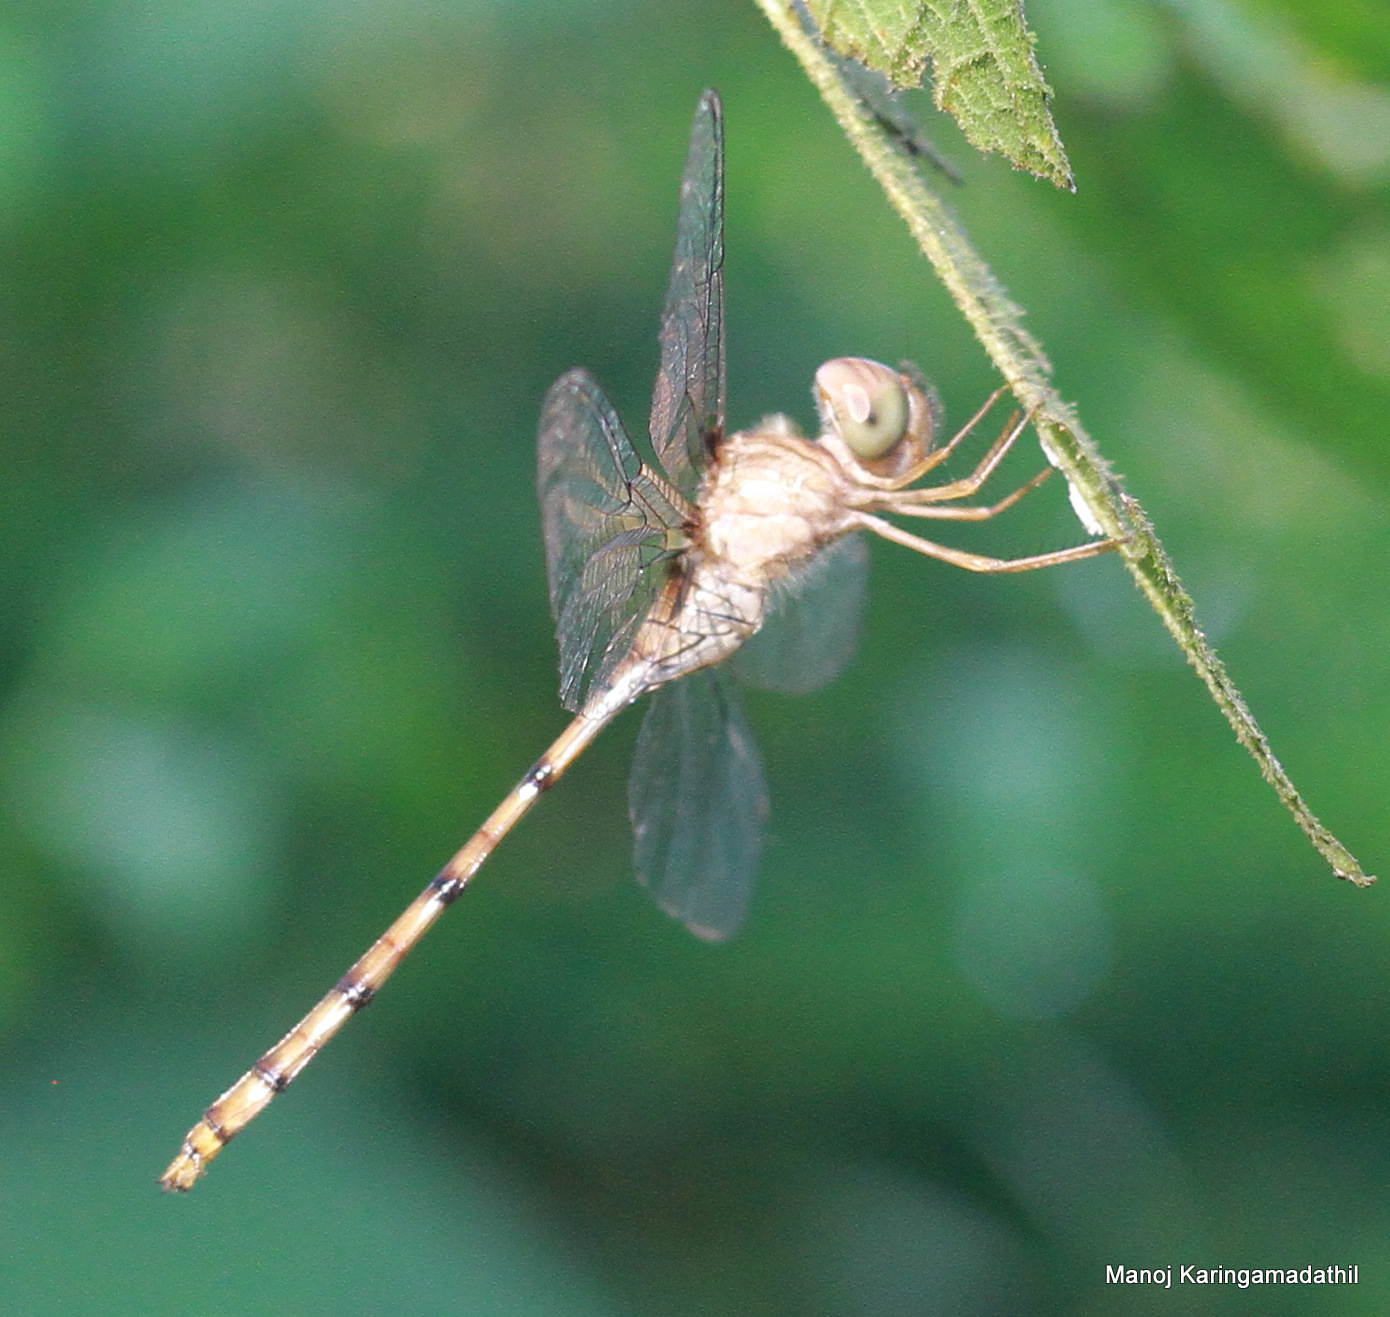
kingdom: Animalia
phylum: Arthropoda
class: Insecta
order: Odonata
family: Libellulidae
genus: Zyxomma
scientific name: Zyxomma petiolatum
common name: Dingy dusk-darter
